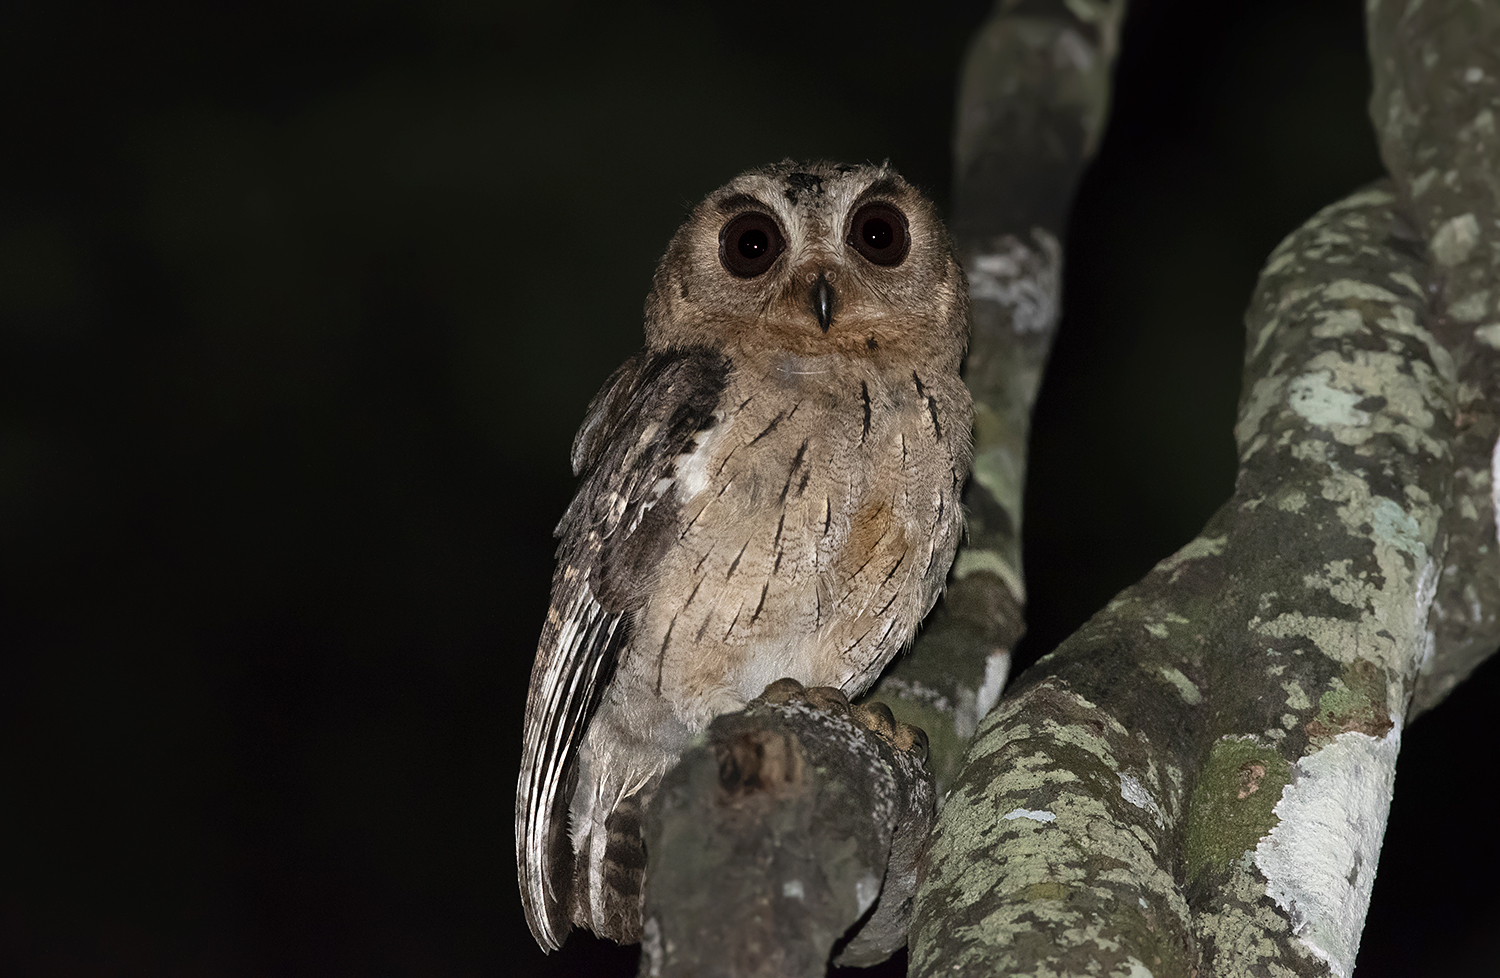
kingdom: Animalia
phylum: Chordata
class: Aves
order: Strigiformes
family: Strigidae
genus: Otus
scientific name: Otus bakkamoena
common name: Indian scops owl
